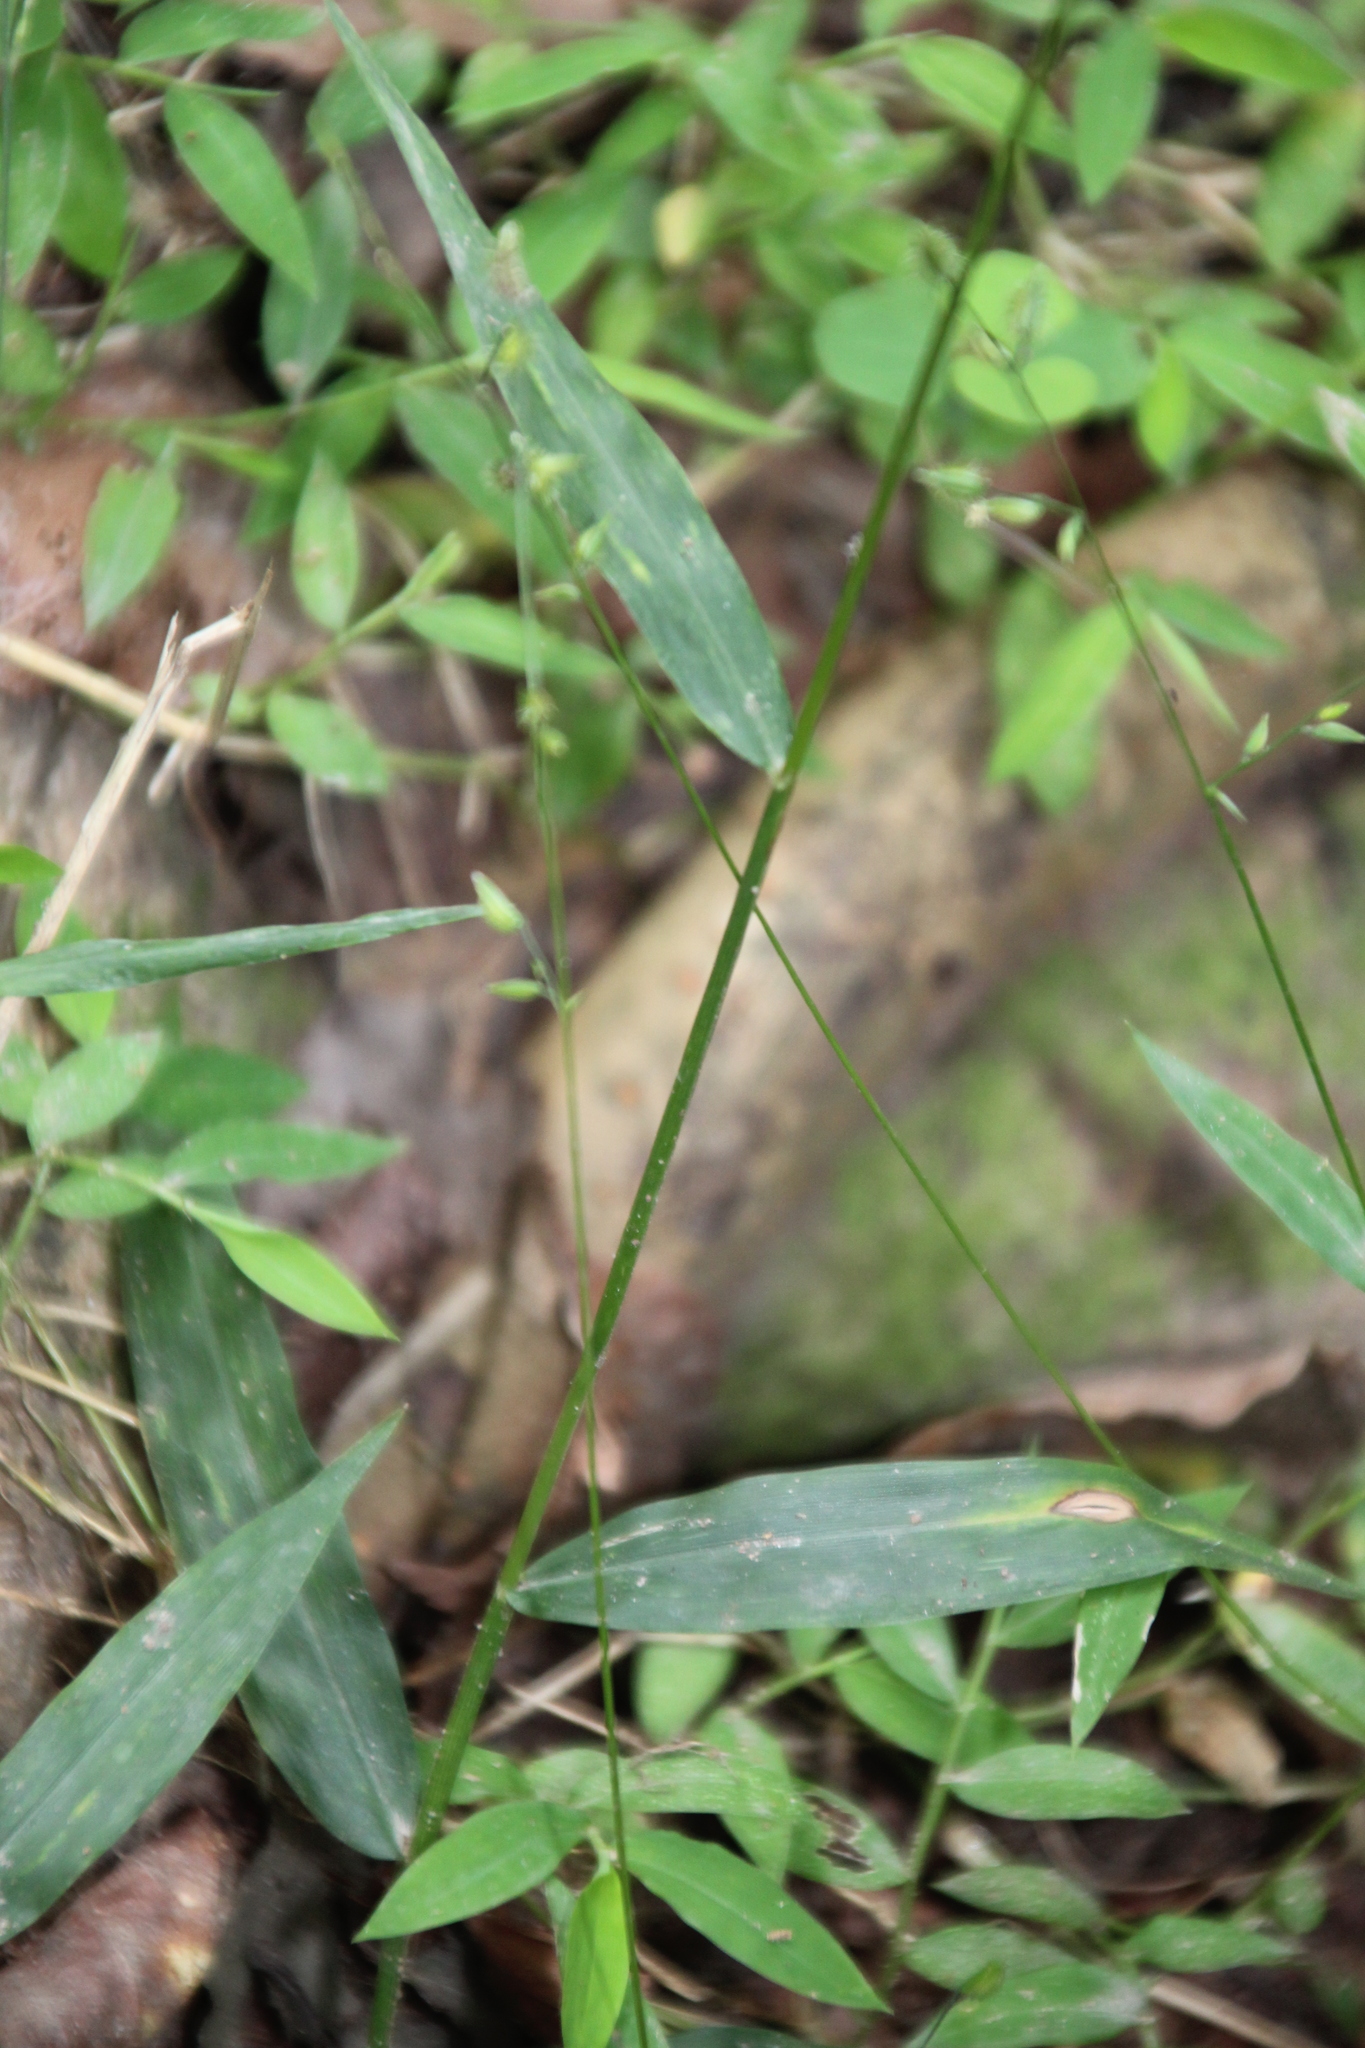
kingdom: Plantae
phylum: Tracheophyta
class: Liliopsida
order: Poales
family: Poaceae
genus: Oplismenus
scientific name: Oplismenus undulatifolius
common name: Wavyleaf basketgrass
